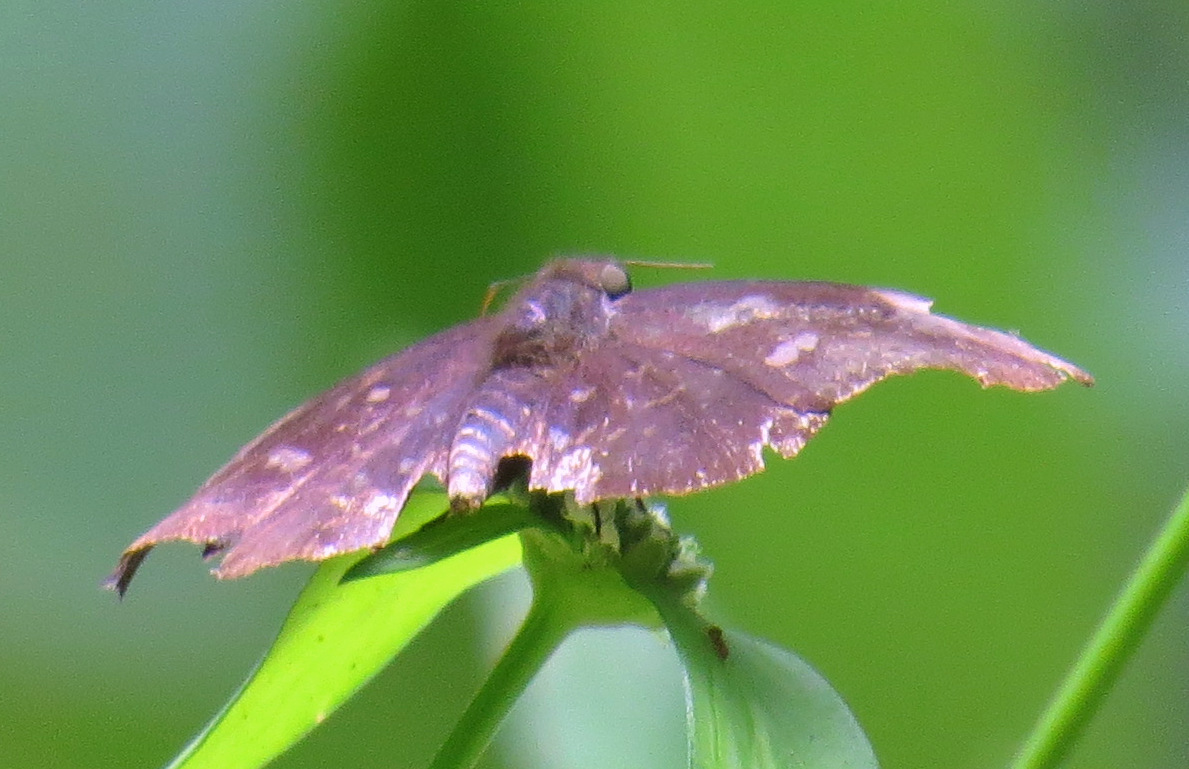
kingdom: Animalia
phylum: Arthropoda
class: Insecta
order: Lepidoptera
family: Hesperiidae
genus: Achlyodes
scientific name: Achlyodes thraso
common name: Sickle-winged skipper
